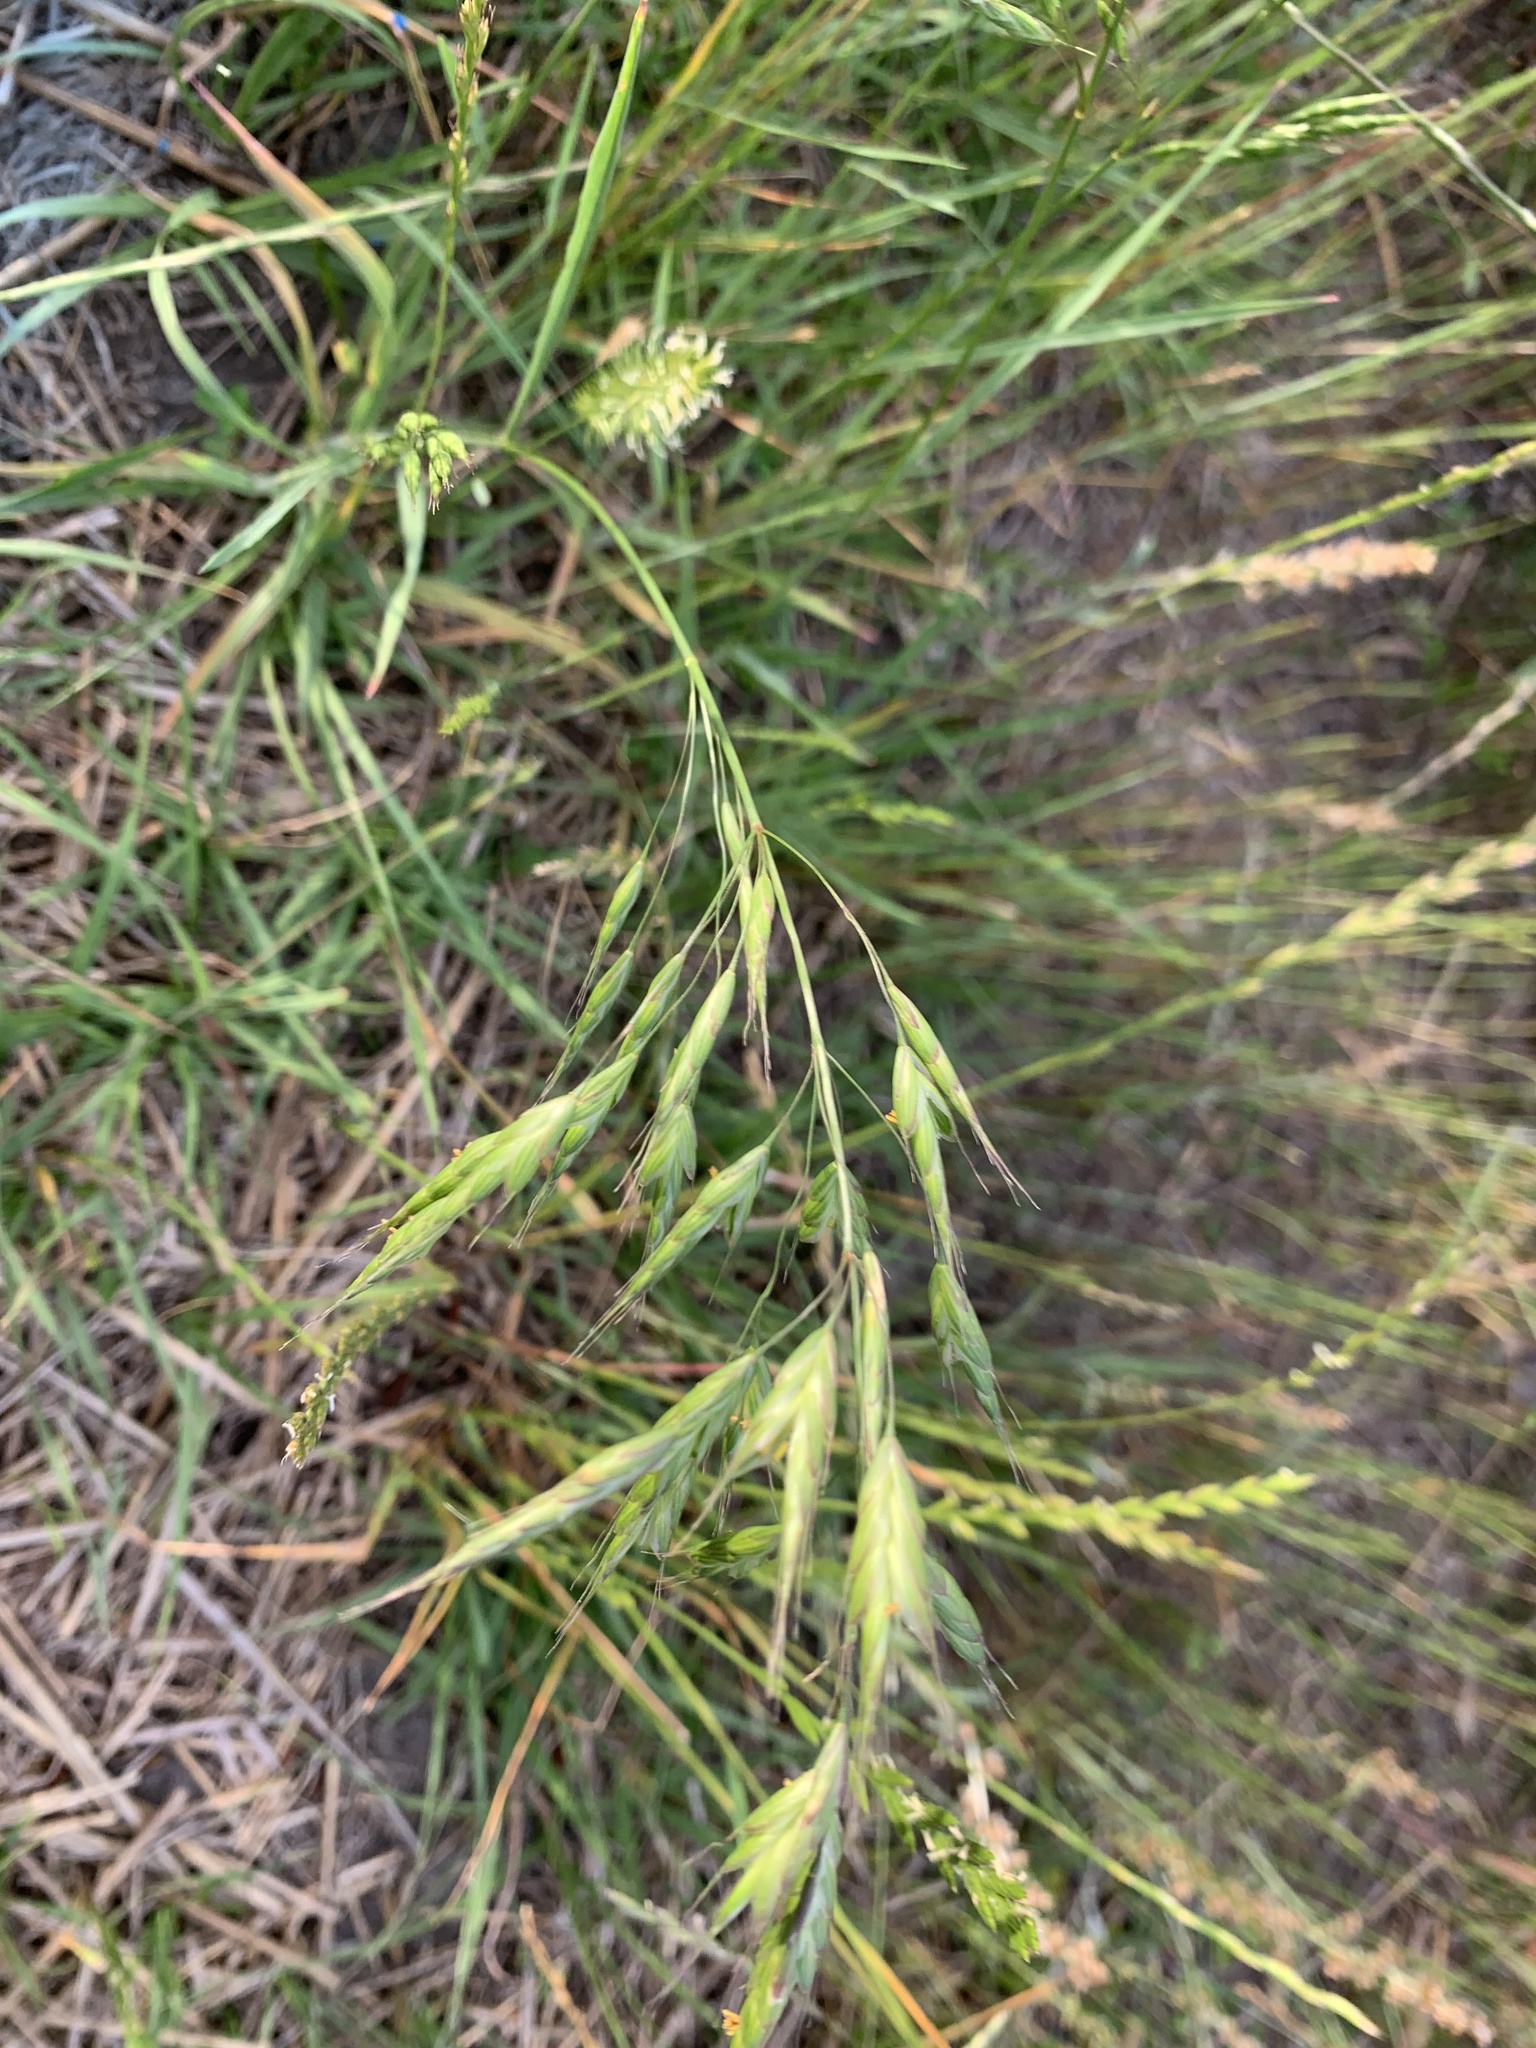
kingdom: Plantae
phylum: Tracheophyta
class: Liliopsida
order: Poales
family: Poaceae
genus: Bromus
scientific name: Bromus secalinus
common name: Rye brome
